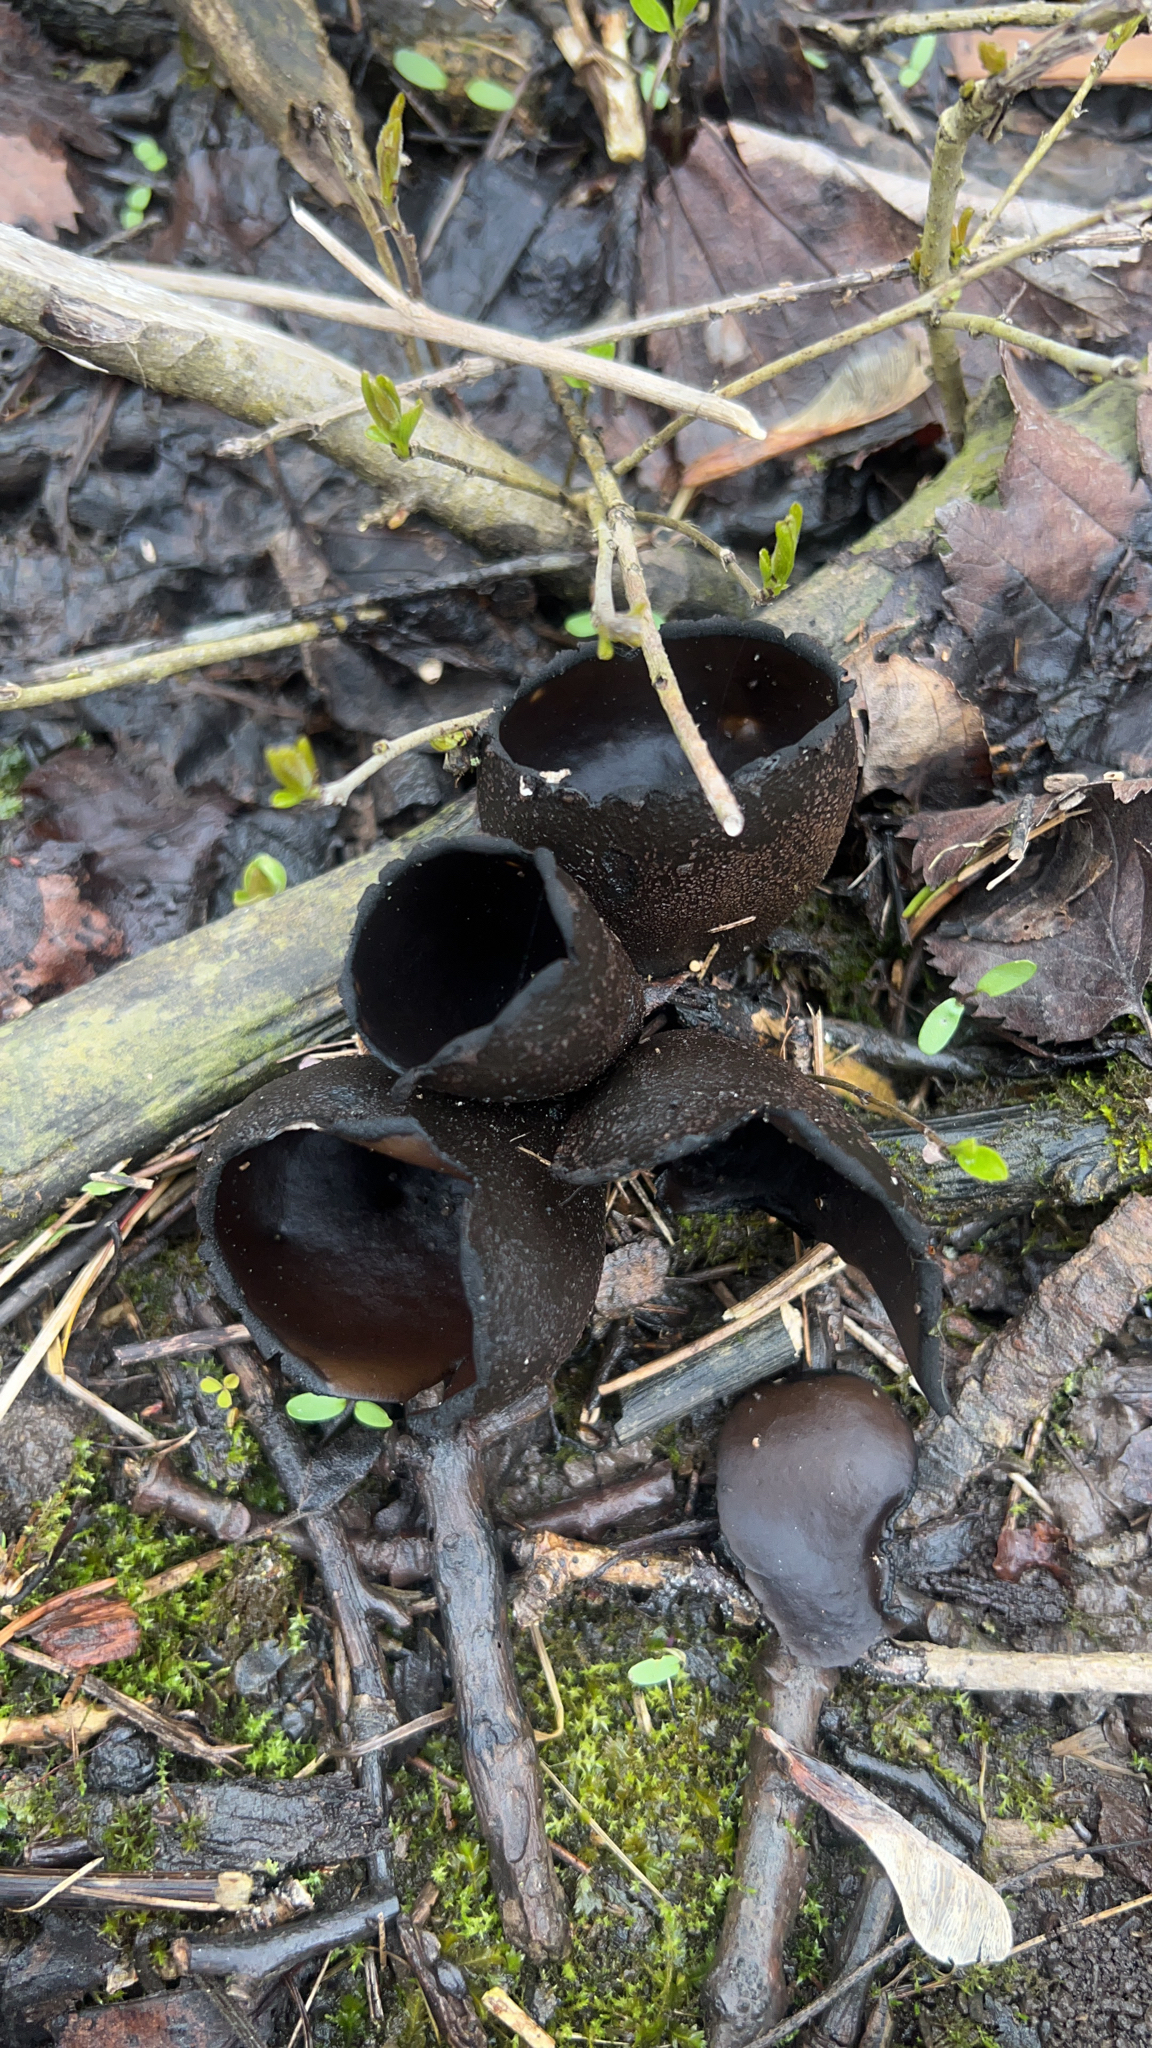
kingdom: Fungi
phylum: Ascomycota
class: Pezizomycetes
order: Pezizales
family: Sarcosomataceae
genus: Urnula
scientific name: Urnula craterium
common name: Devil's urn
